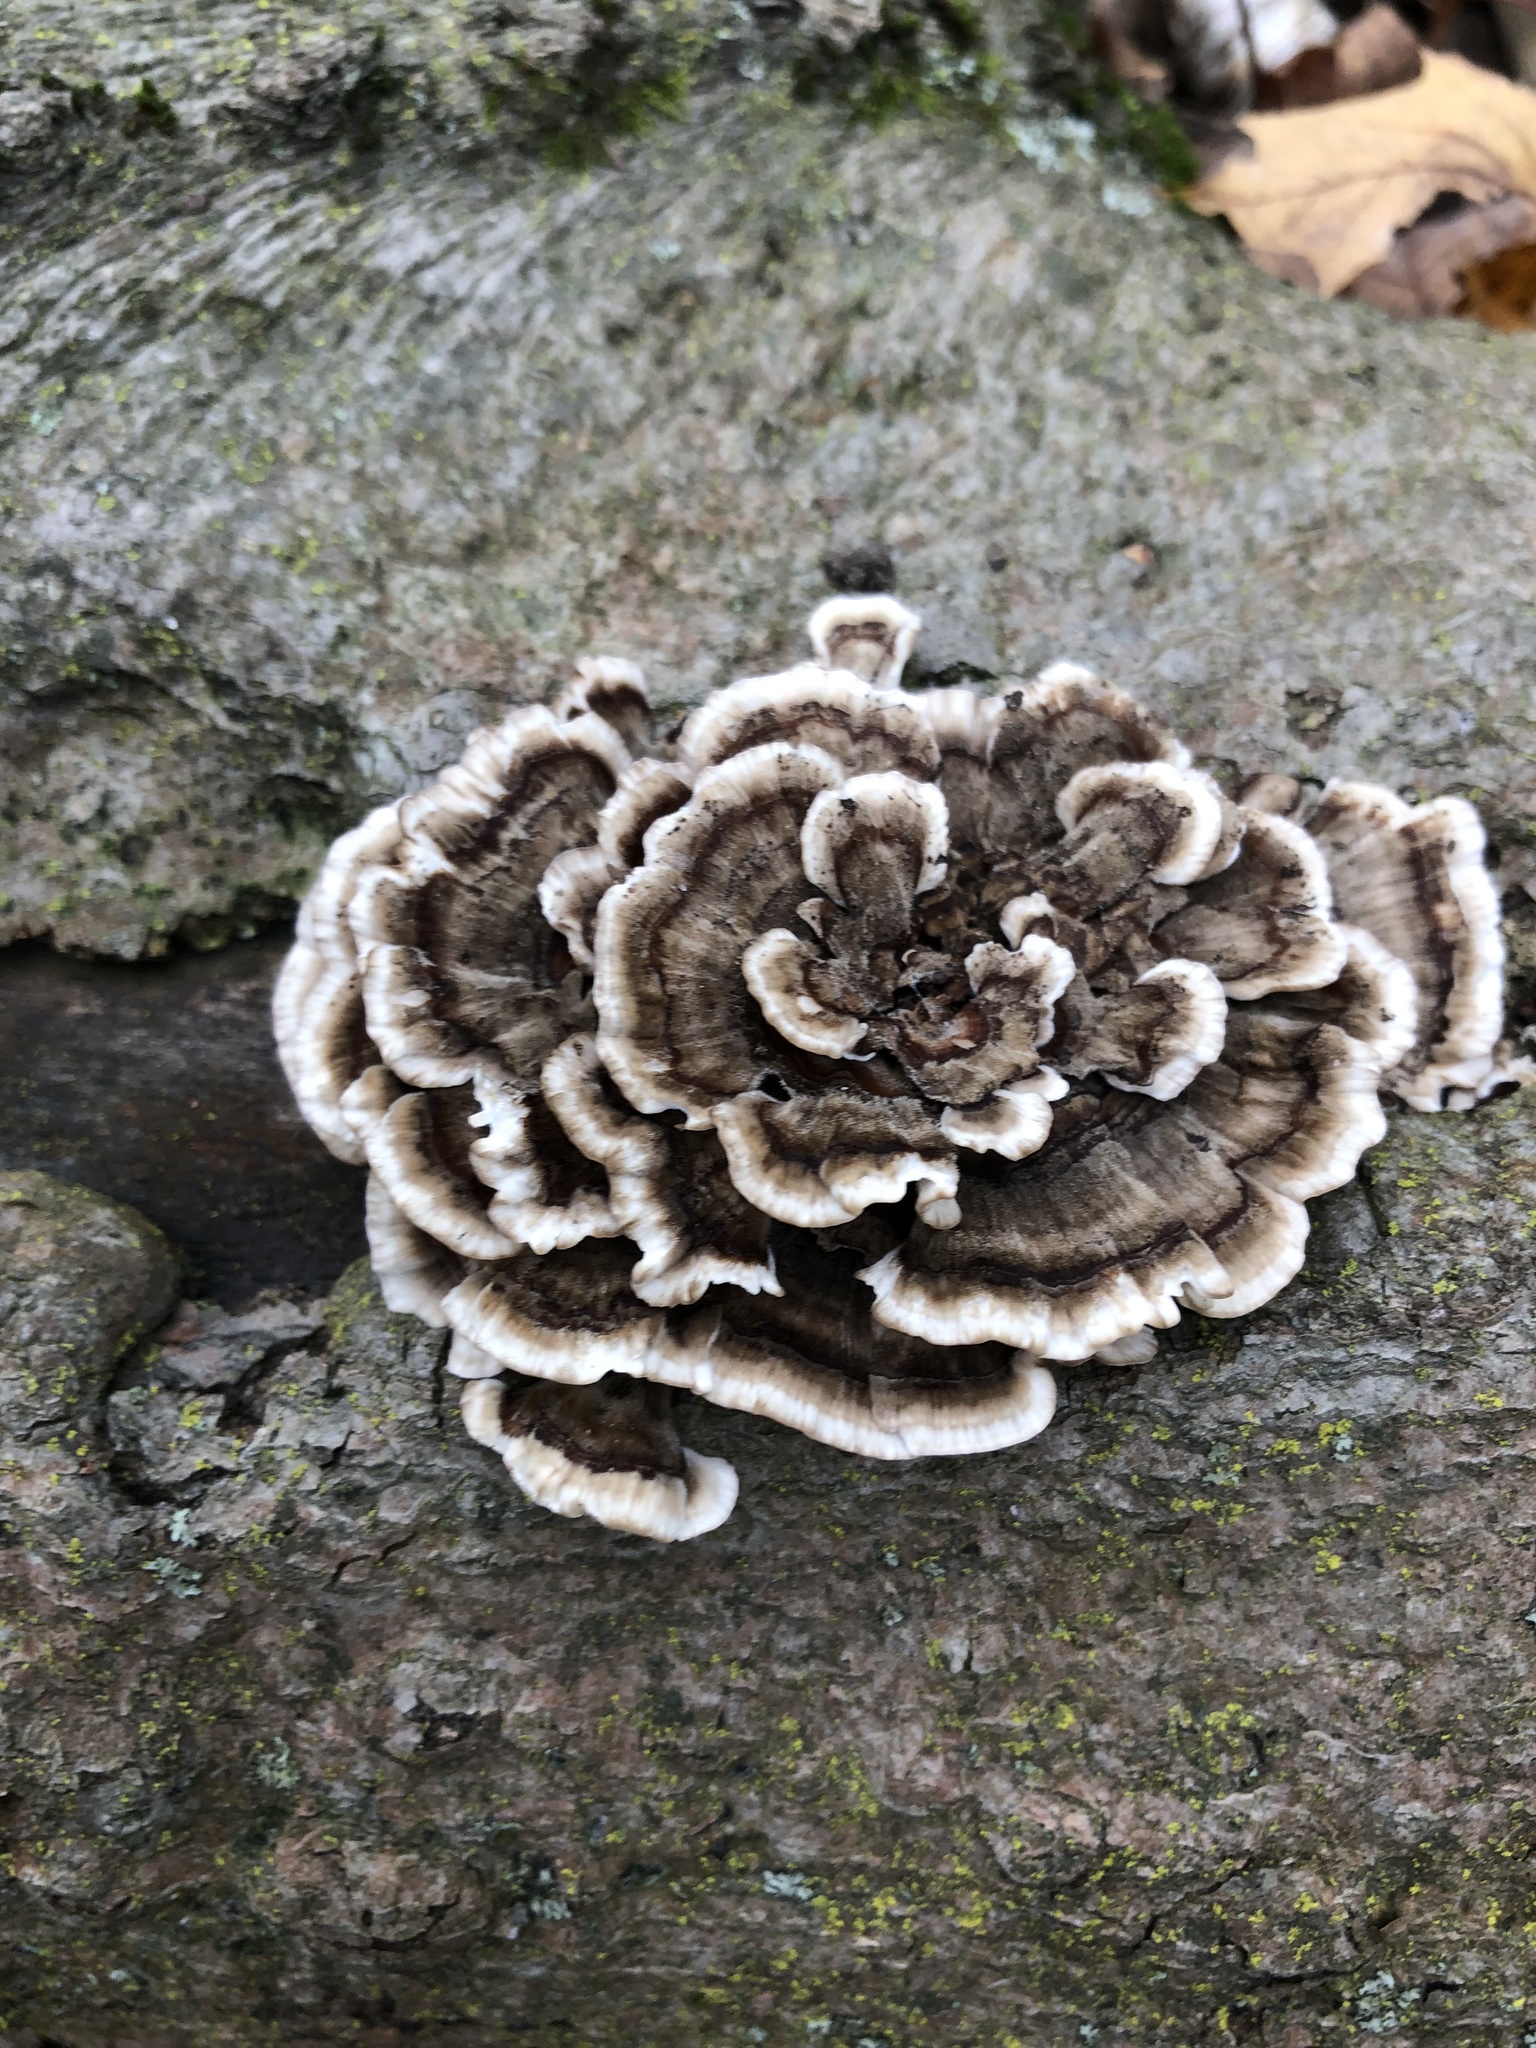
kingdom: Fungi
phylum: Basidiomycota
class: Agaricomycetes
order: Polyporales
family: Polyporaceae
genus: Trametes
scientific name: Trametes versicolor
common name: Turkeytail
